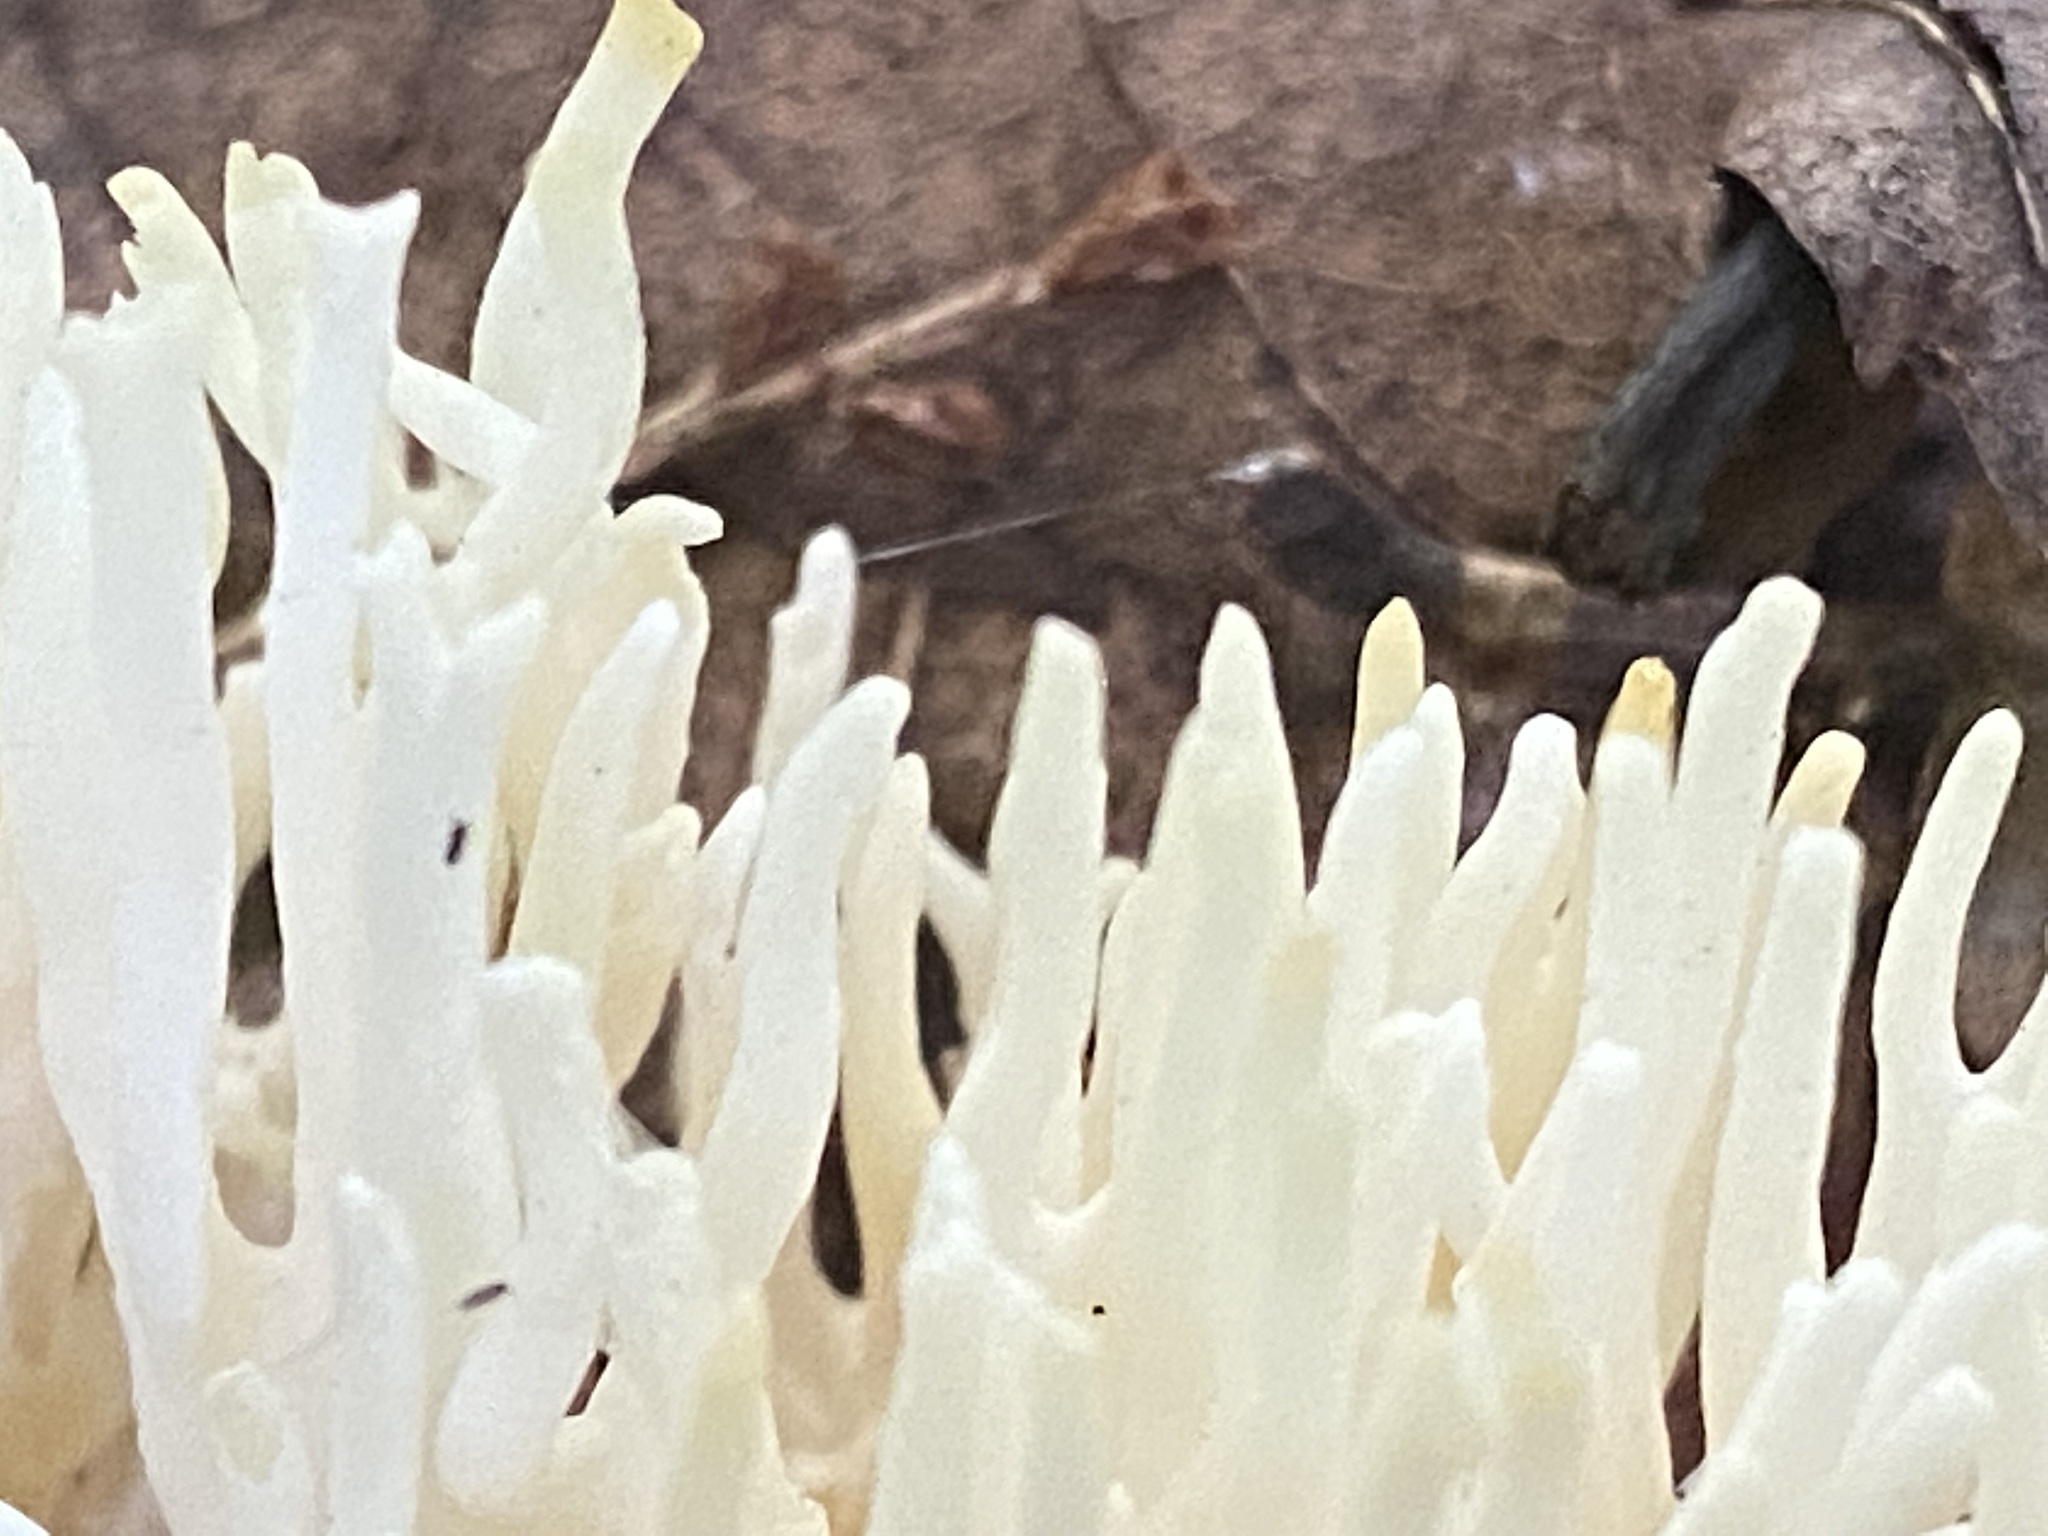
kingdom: Fungi
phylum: Basidiomycota
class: Agaricomycetes
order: Agaricales
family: Clavariaceae
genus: Ramariopsis
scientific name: Ramariopsis kunzei
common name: Ivory coral
